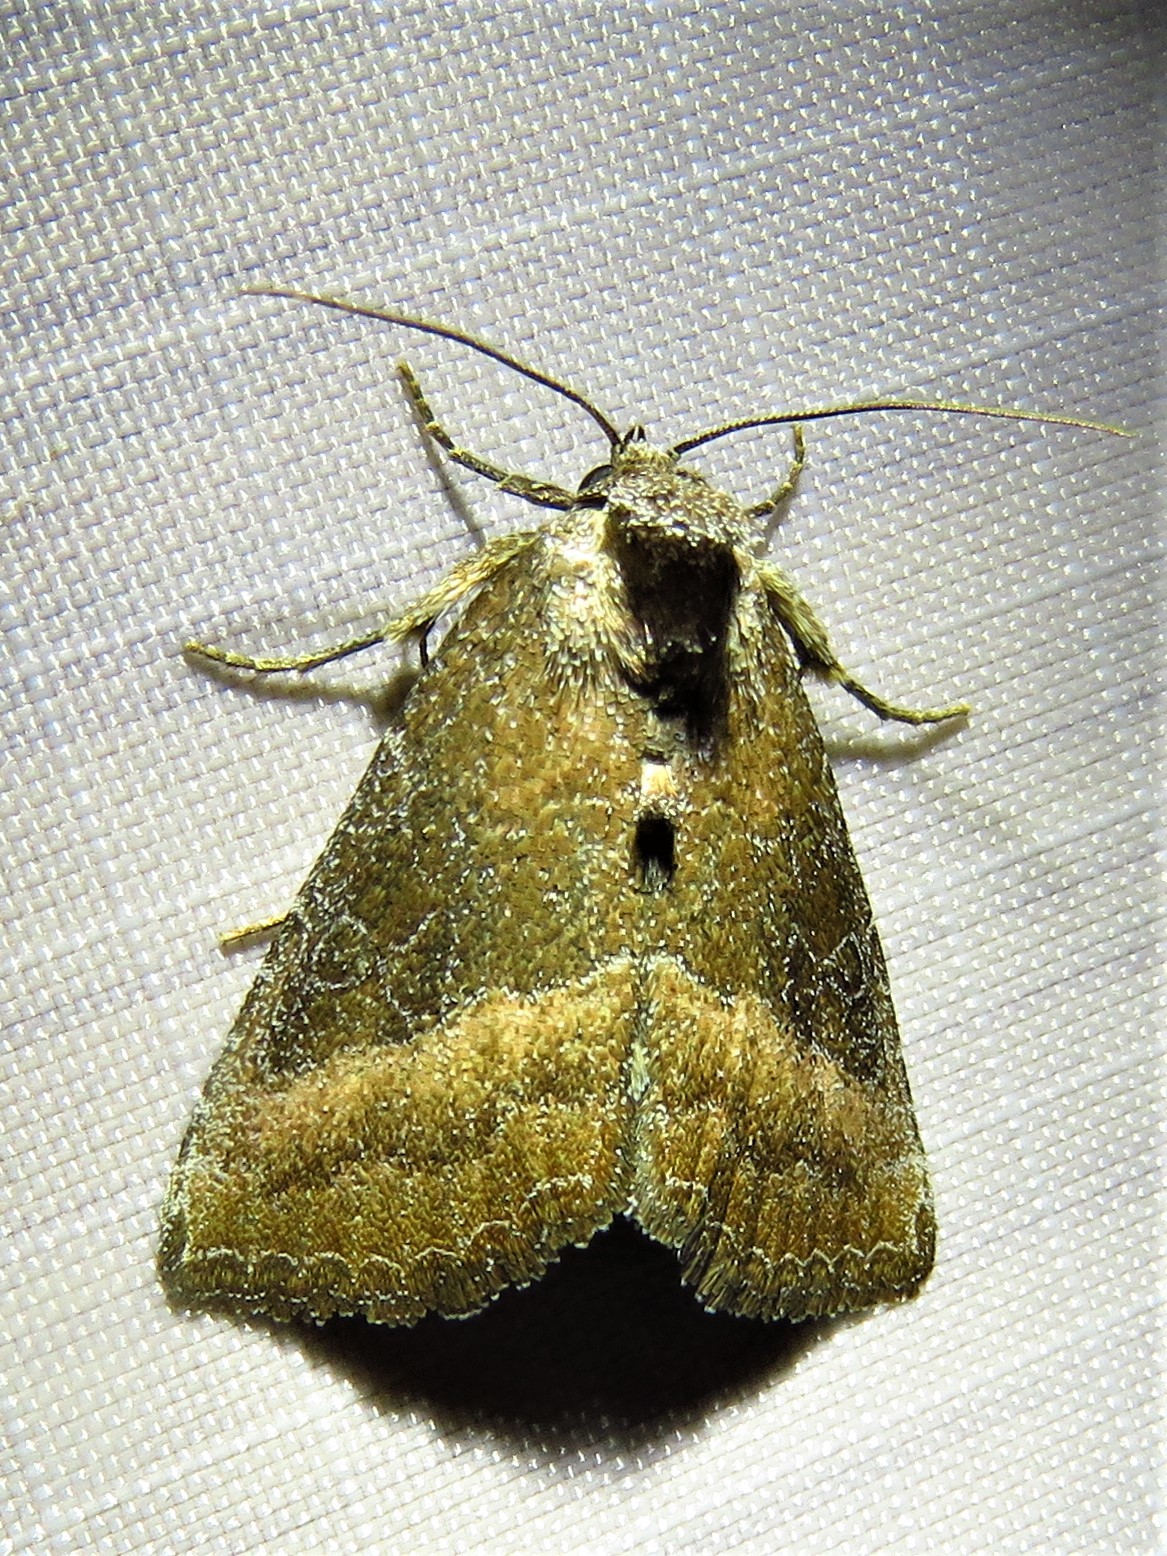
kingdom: Animalia
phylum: Arthropoda
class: Insecta
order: Lepidoptera
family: Noctuidae
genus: Ogdoconta
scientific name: Ogdoconta cinereola
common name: Common pinkband
